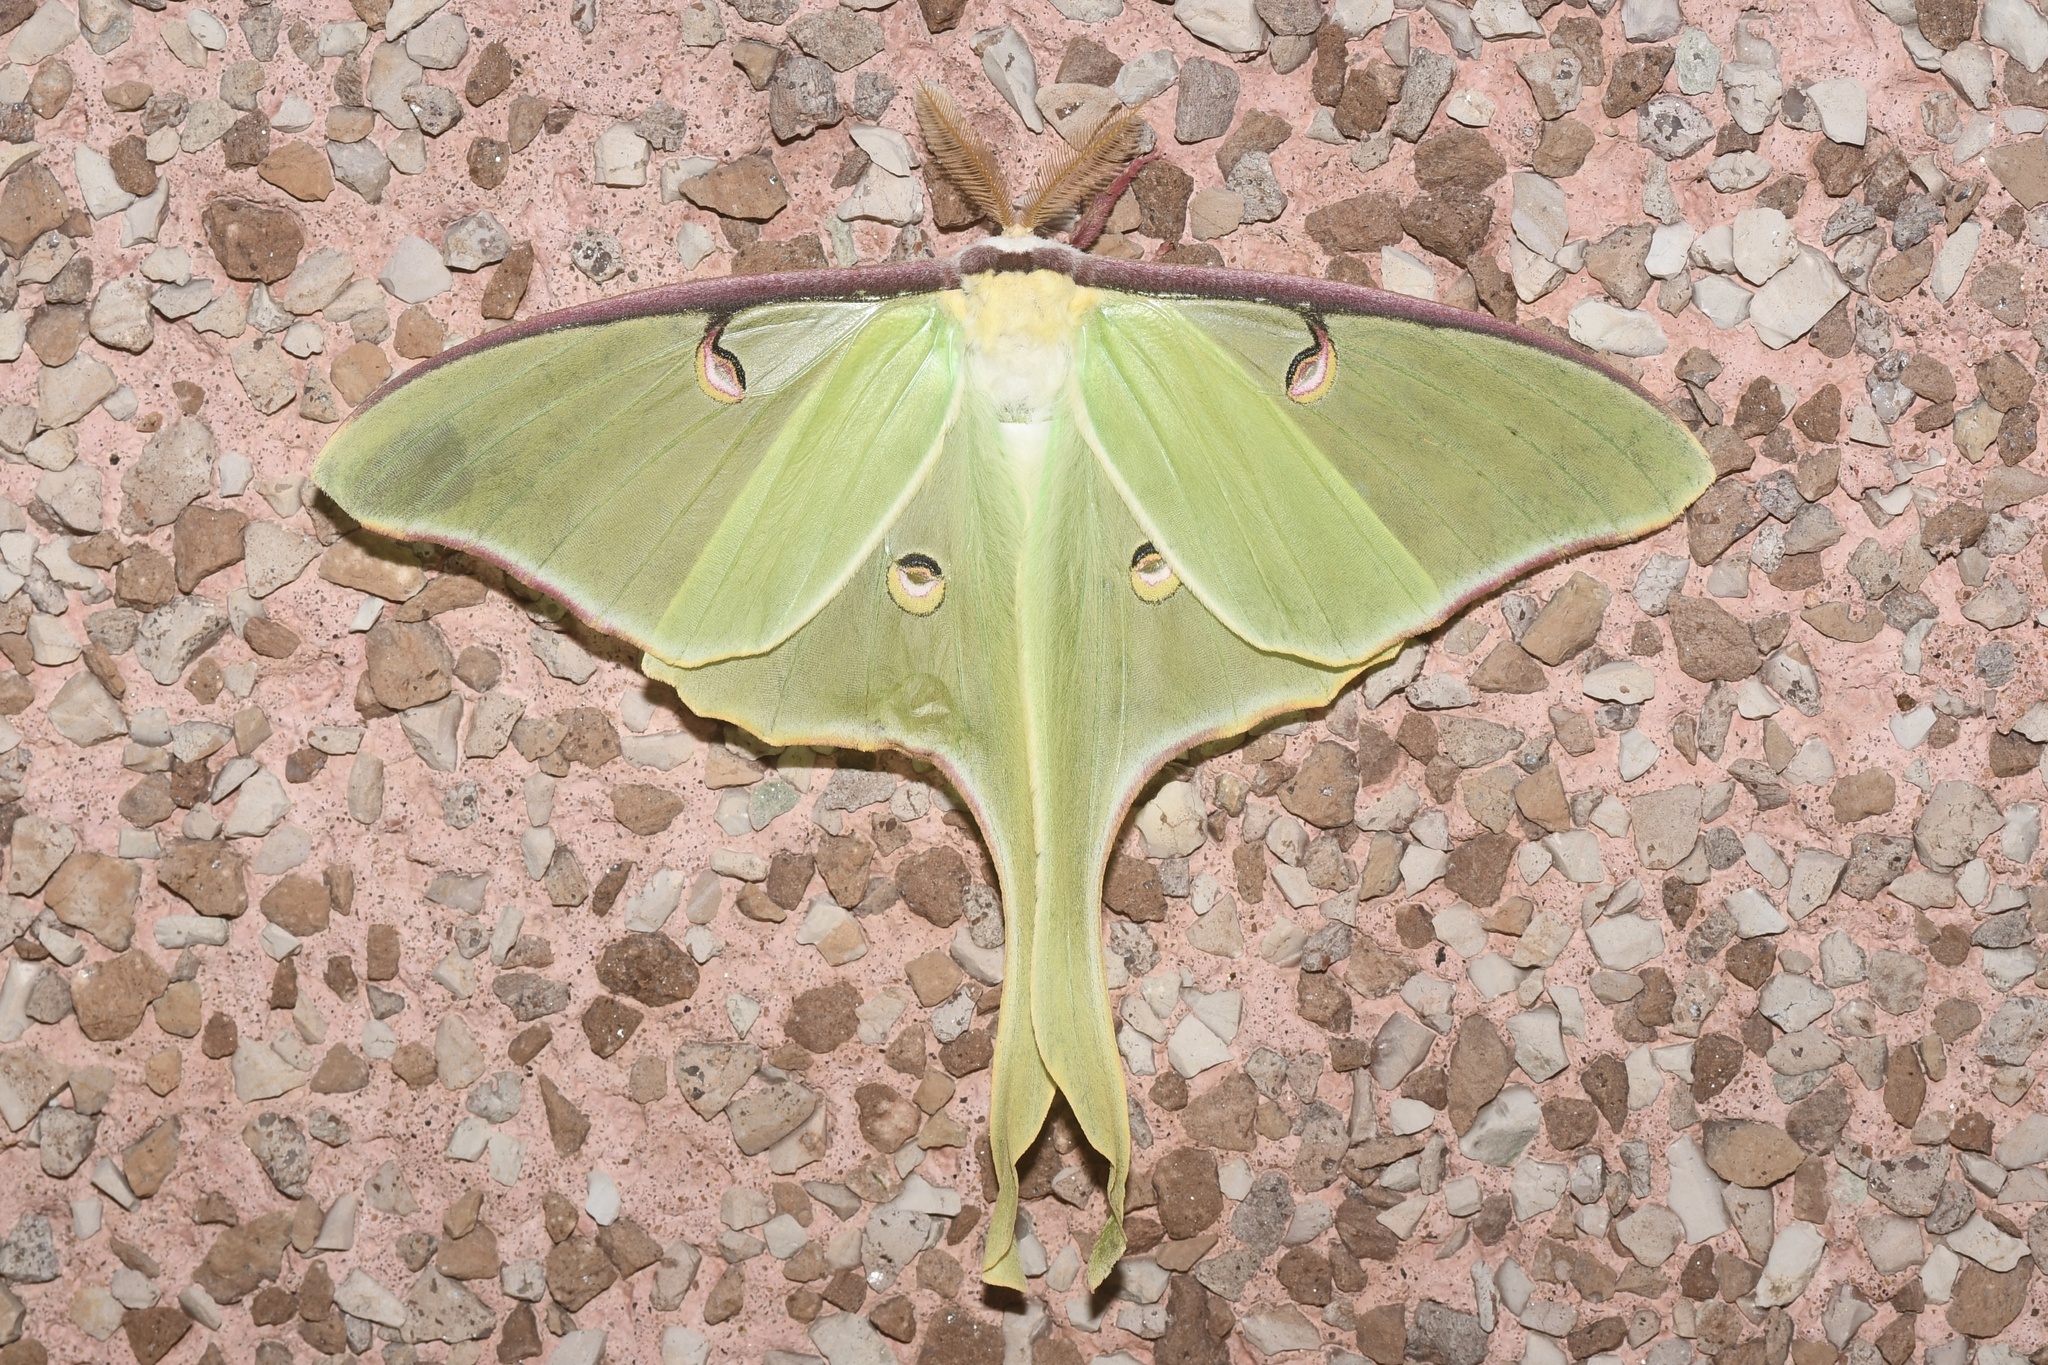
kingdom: Animalia
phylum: Arthropoda
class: Insecta
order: Lepidoptera
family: Saturniidae
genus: Actias
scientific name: Actias luna
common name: Luna moth
